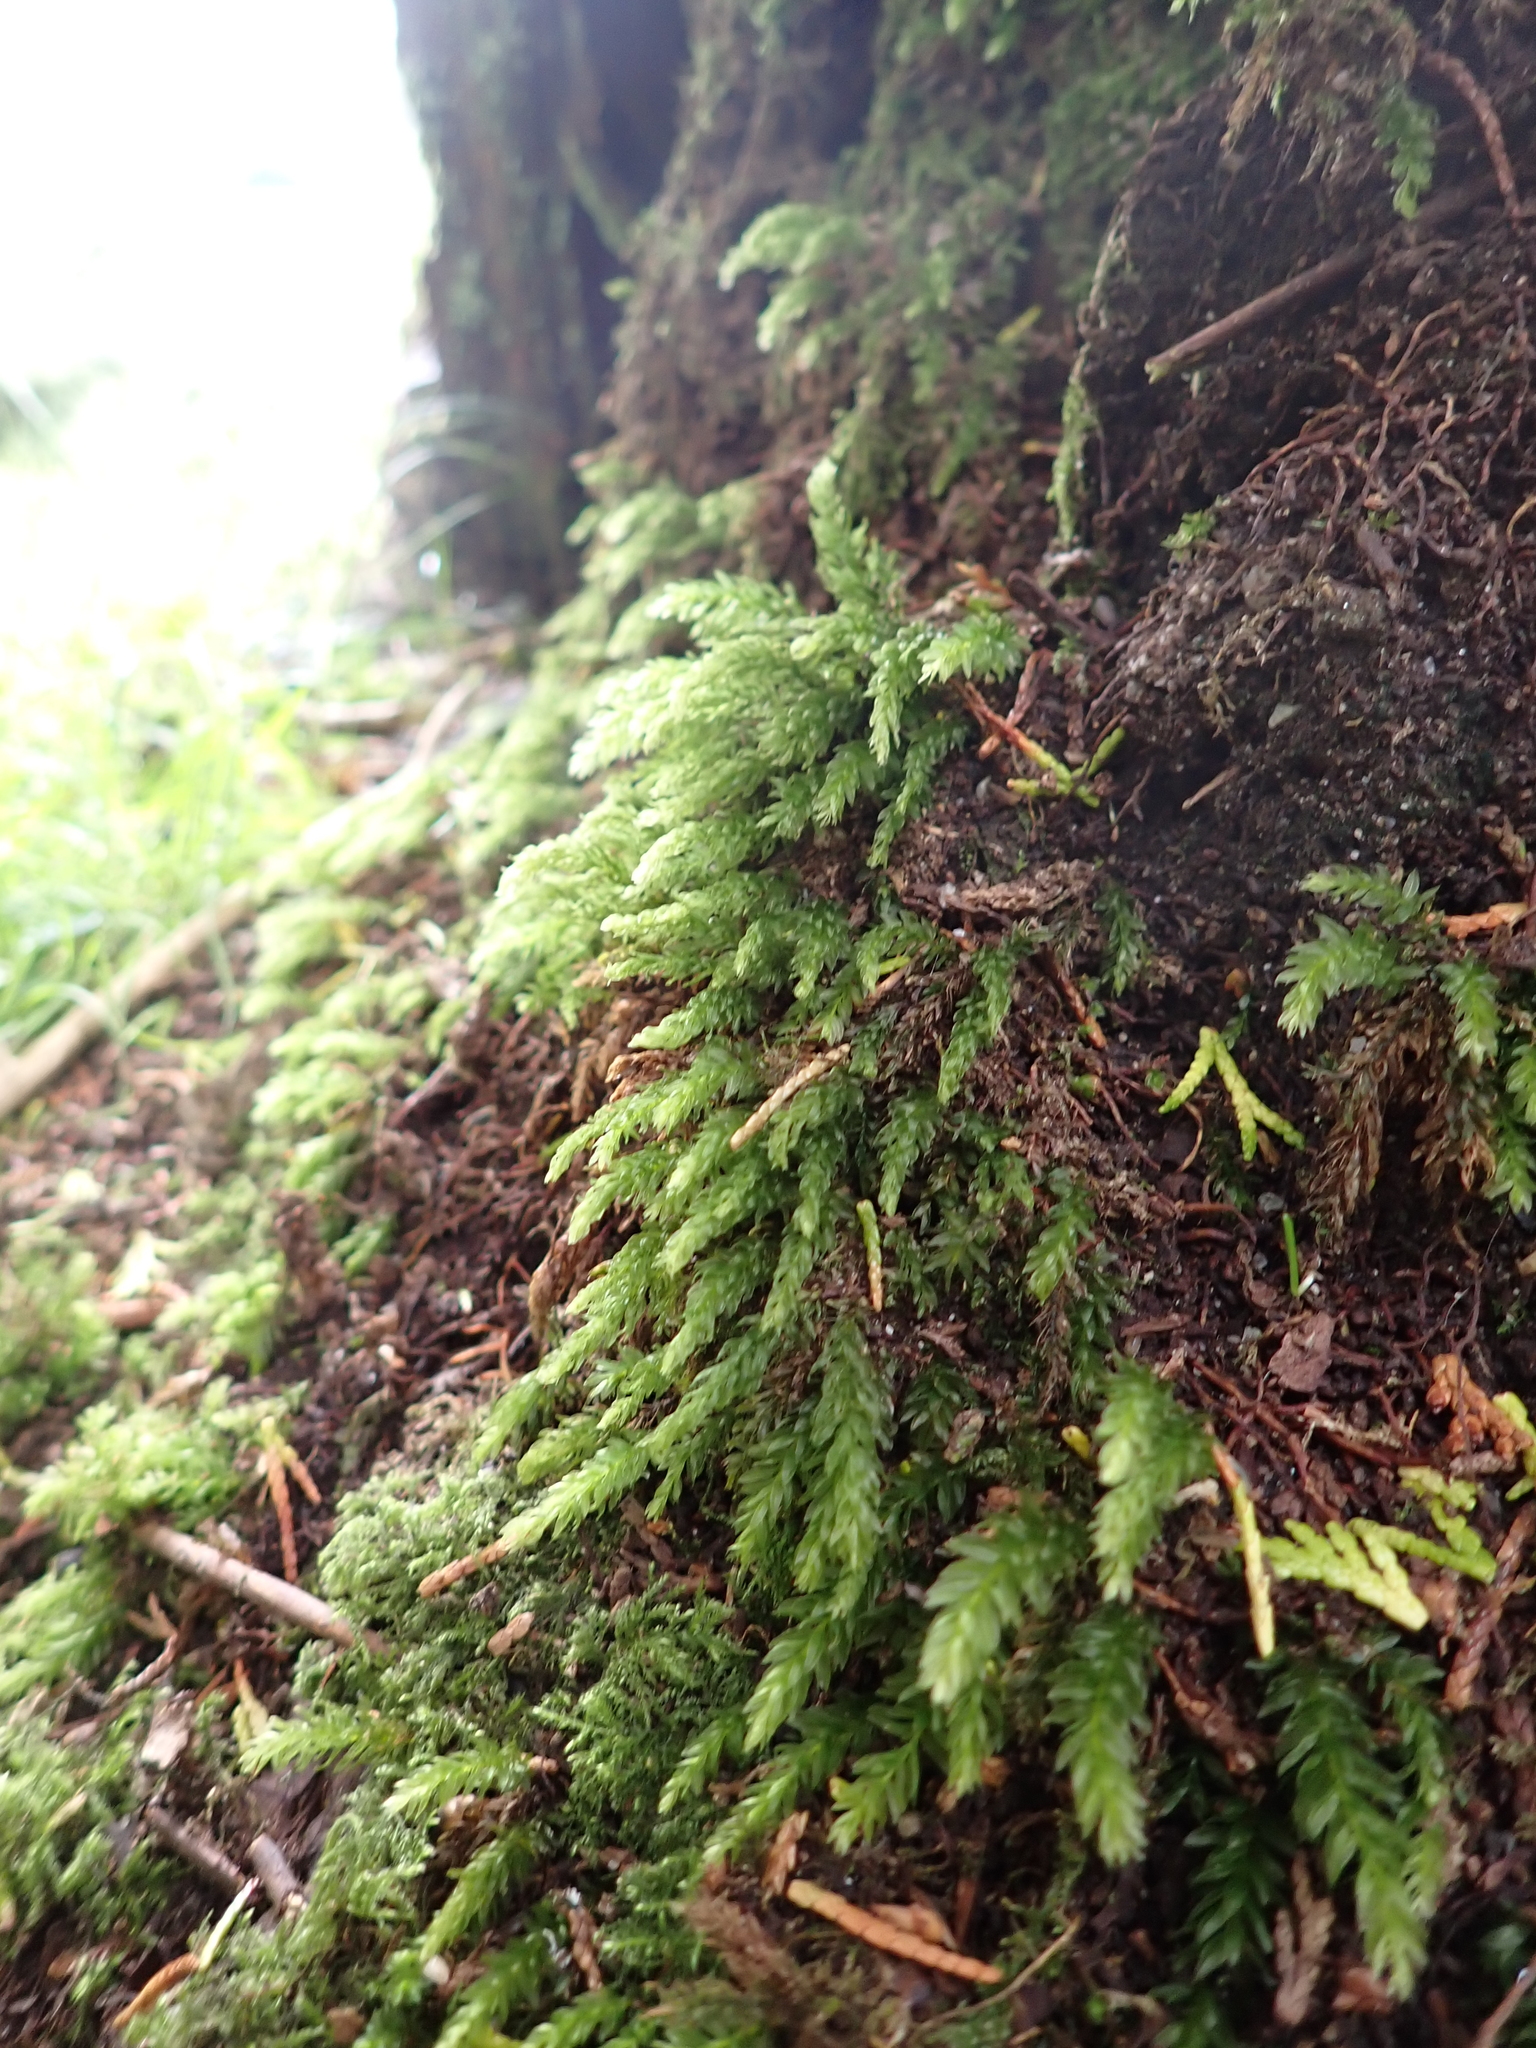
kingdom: Plantae
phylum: Bryophyta
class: Bryopsida
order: Bryales
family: Mniaceae
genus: Mnium
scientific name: Mnium hornum
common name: Swan's-neck leafy moss
